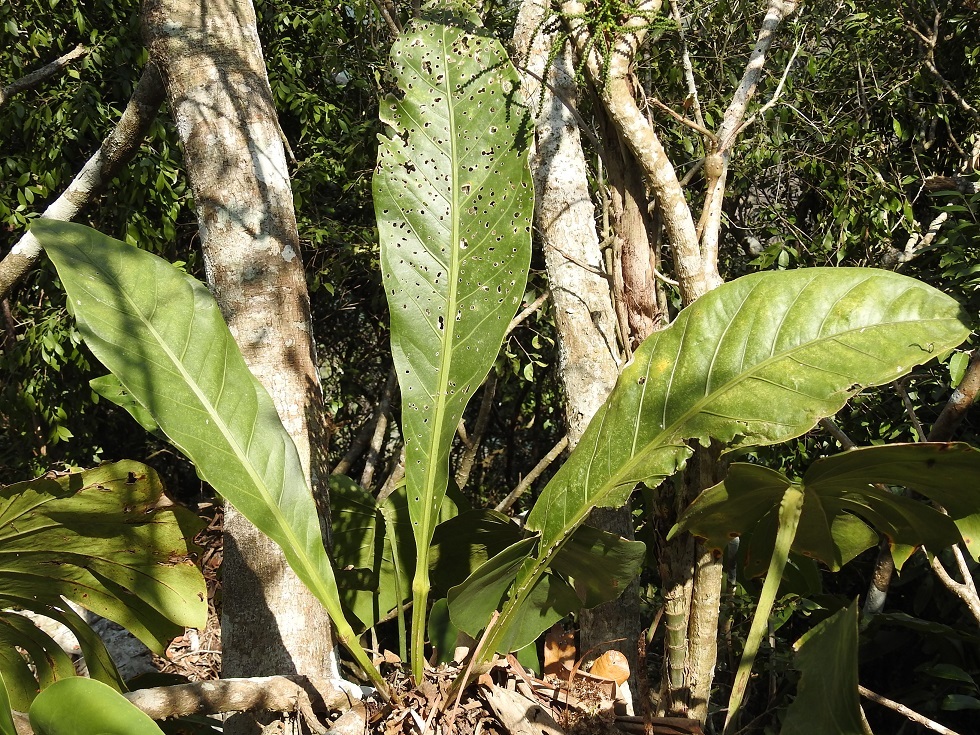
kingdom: Plantae
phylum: Tracheophyta
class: Liliopsida
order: Alismatales
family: Araceae
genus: Anthurium
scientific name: Anthurium schlechtendalii
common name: Laceleaf
